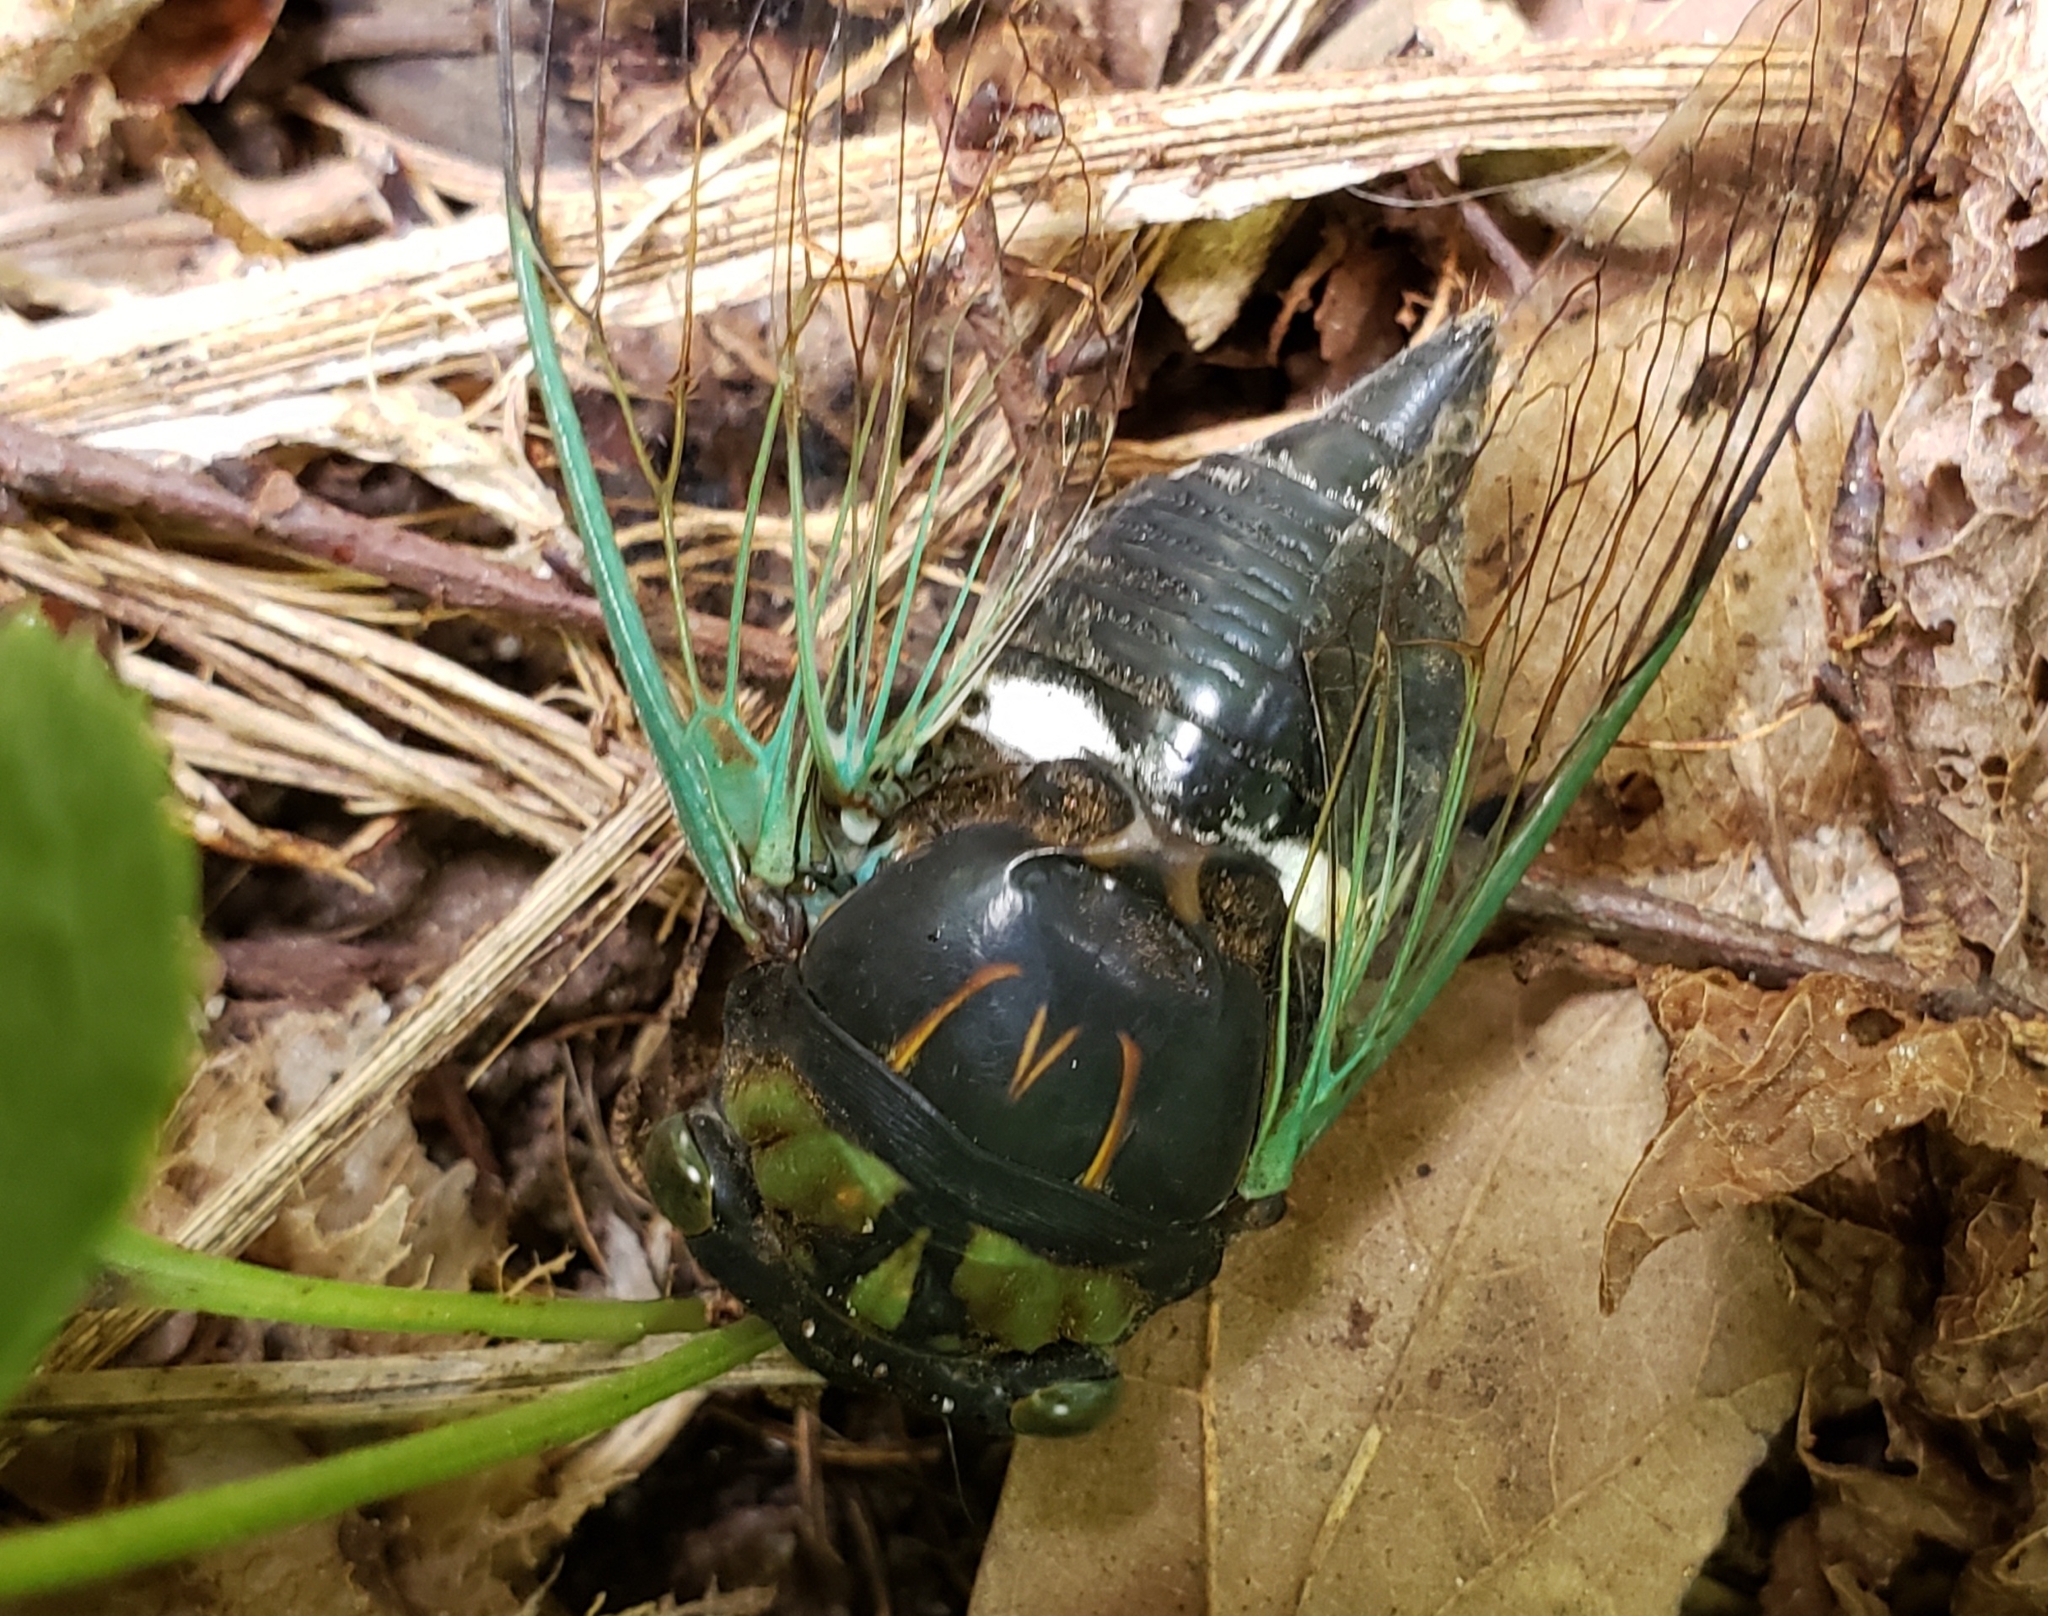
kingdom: Animalia
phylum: Arthropoda
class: Insecta
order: Hemiptera
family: Cicadidae
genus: Neotibicen
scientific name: Neotibicen tibicen
